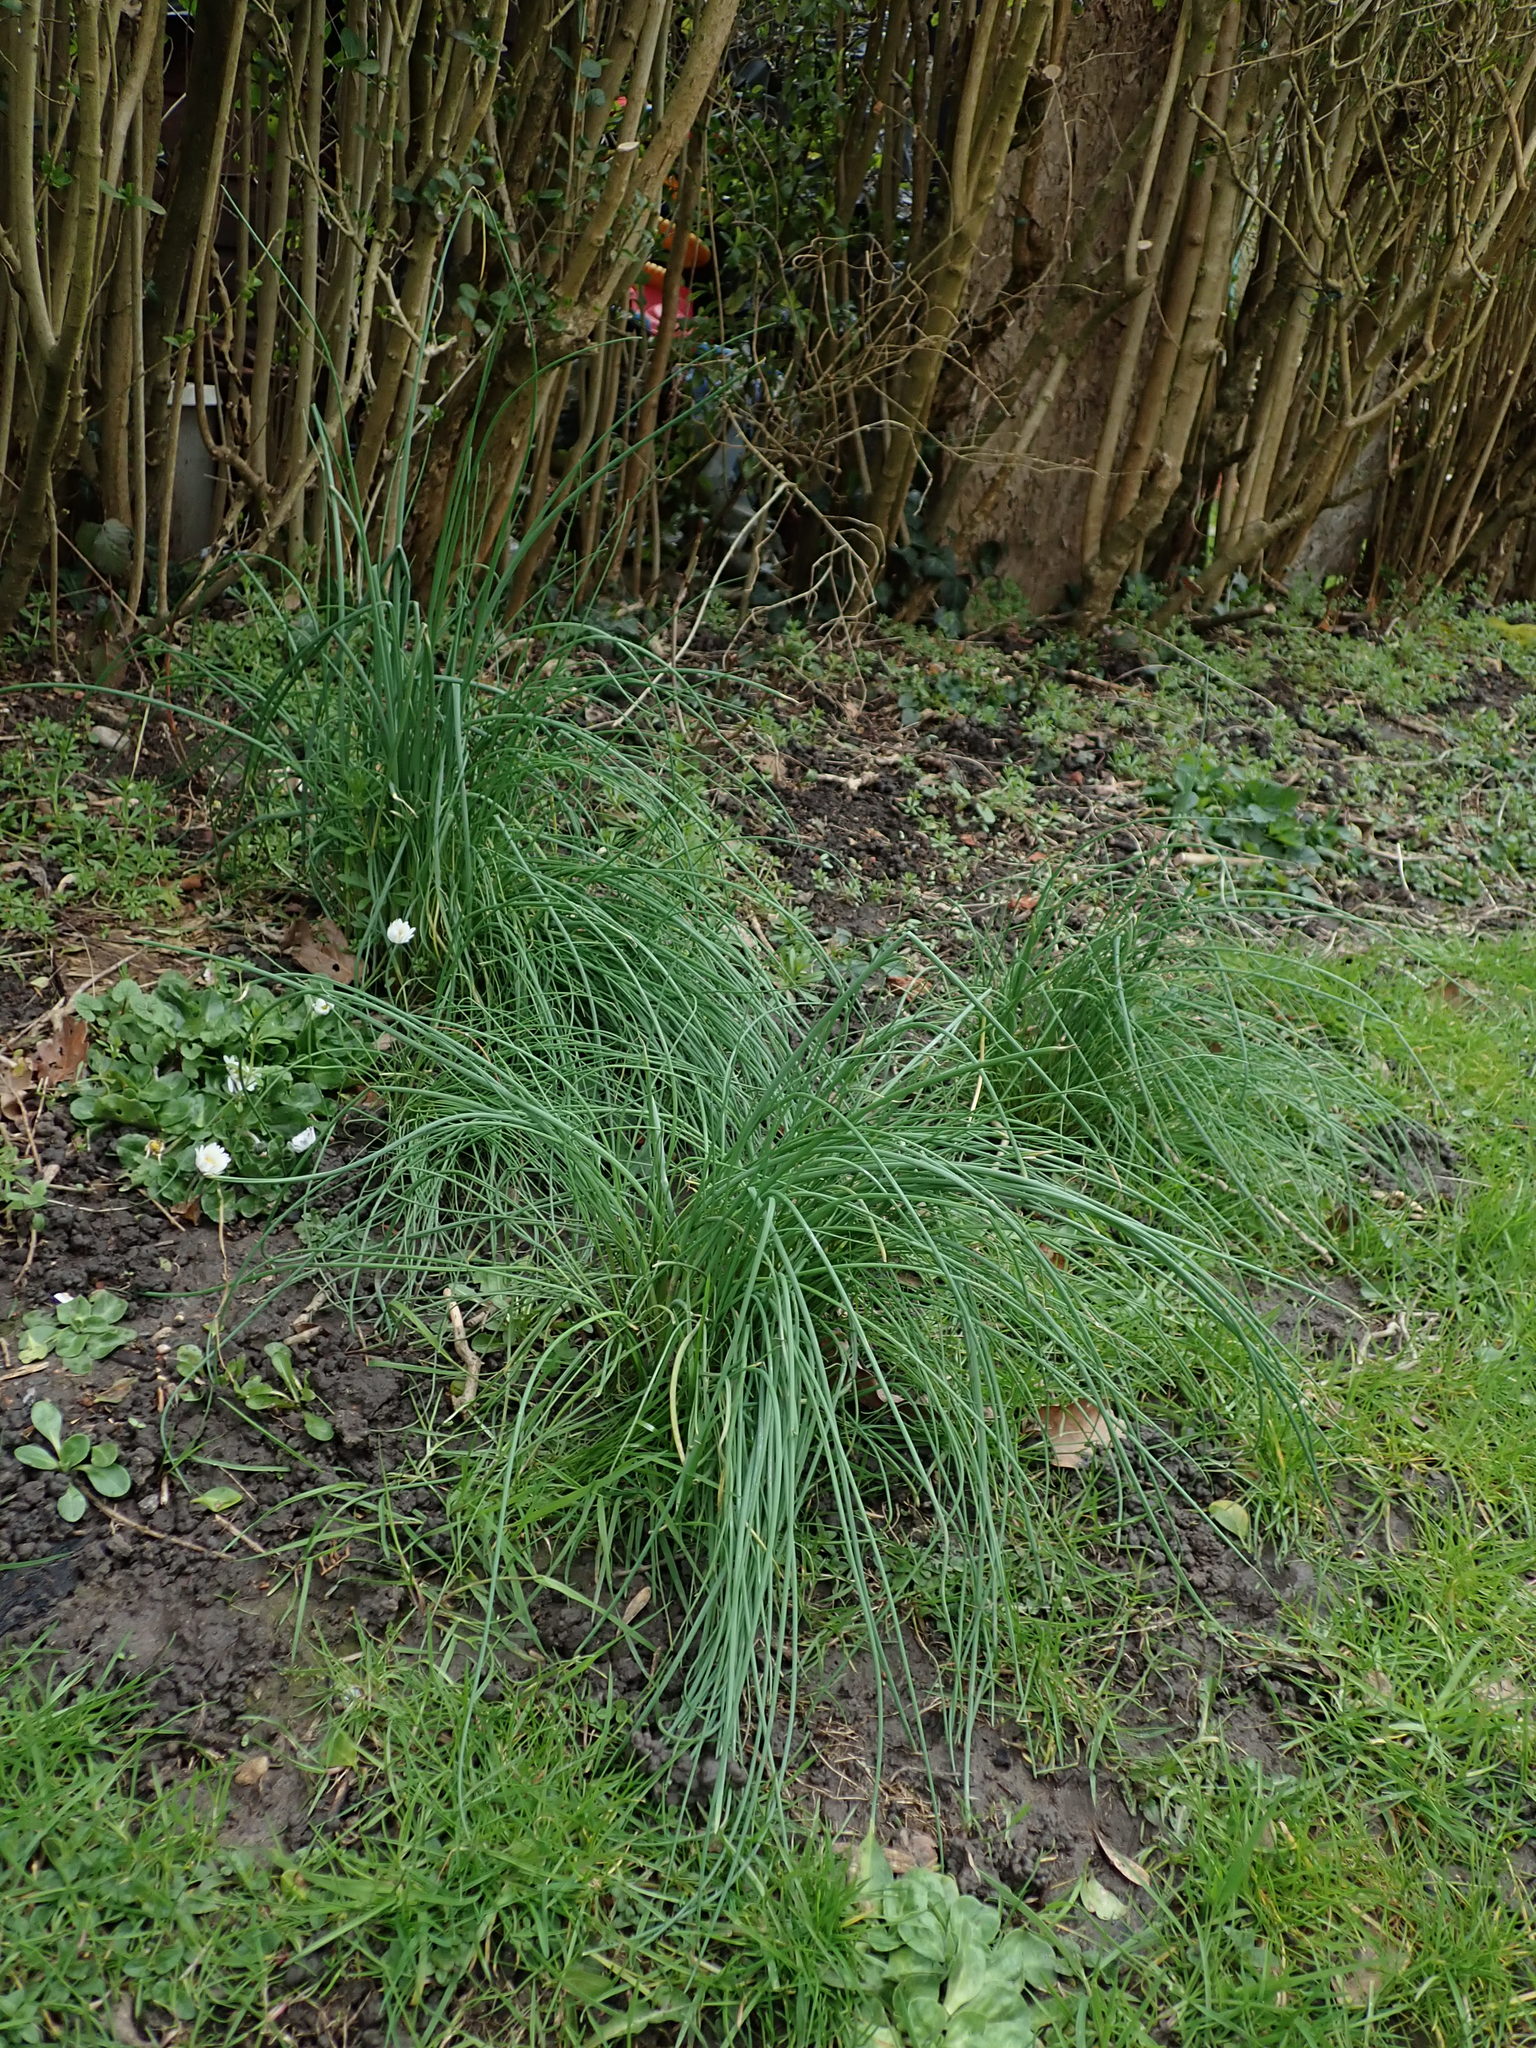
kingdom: Plantae
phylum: Tracheophyta
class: Liliopsida
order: Asparagales
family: Amaryllidaceae
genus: Allium
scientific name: Allium vineale
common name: Crow garlic
